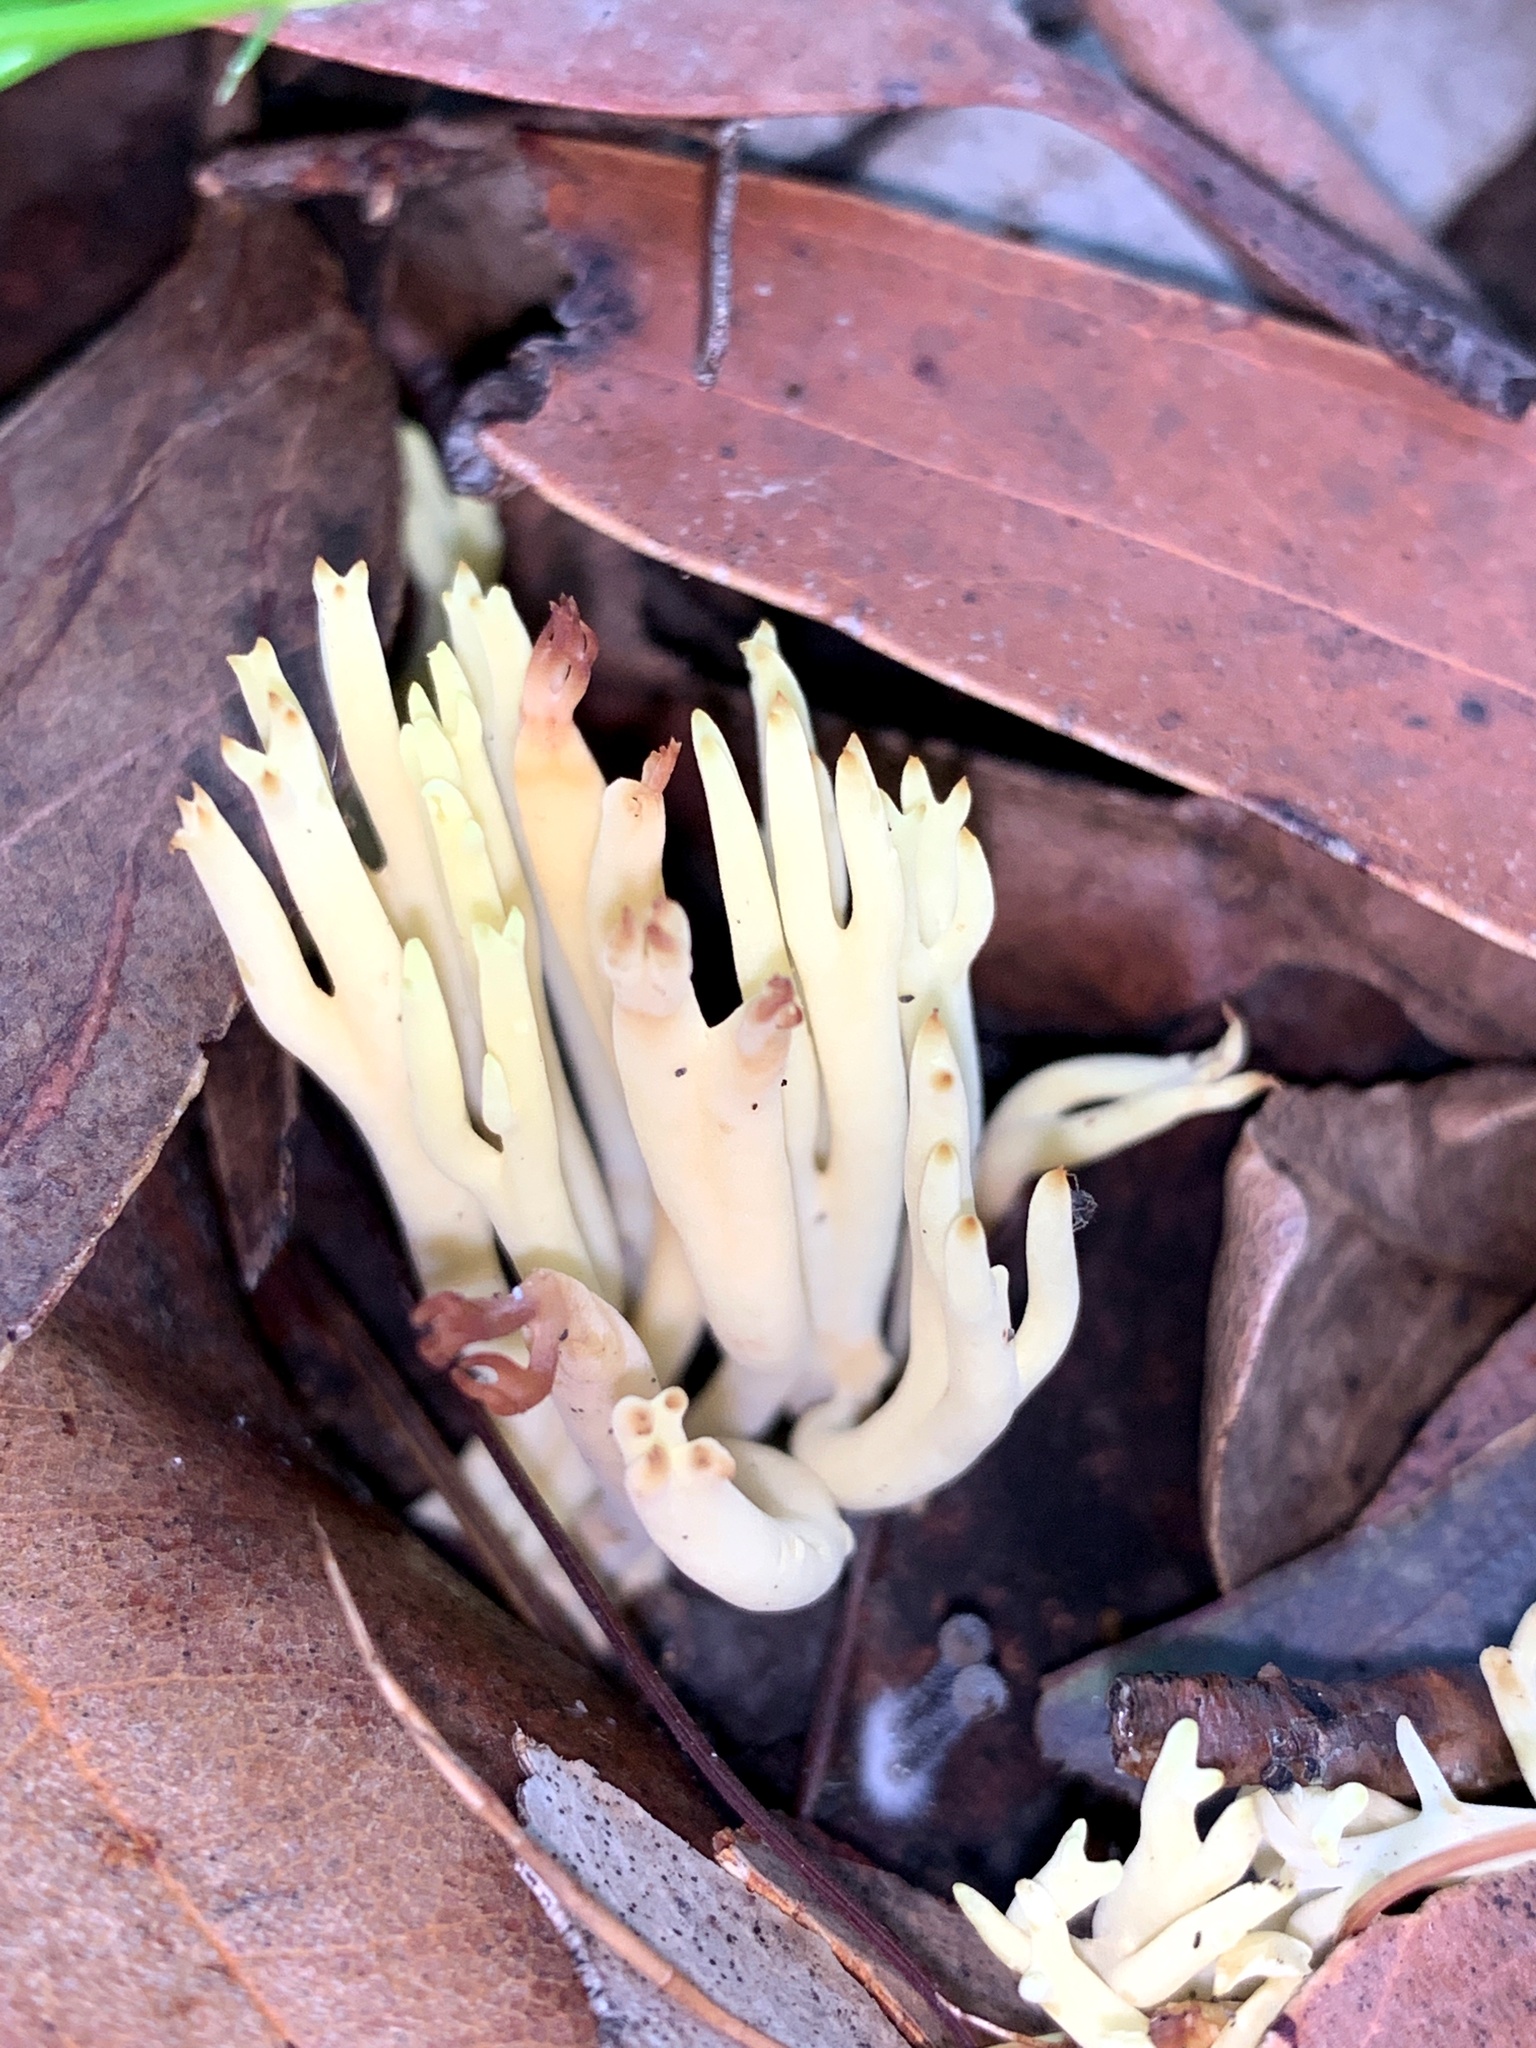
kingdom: Fungi
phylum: Basidiomycota
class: Agaricomycetes
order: Gomphales
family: Gomphaceae
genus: Ramaria
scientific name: Ramaria lorithamnus
